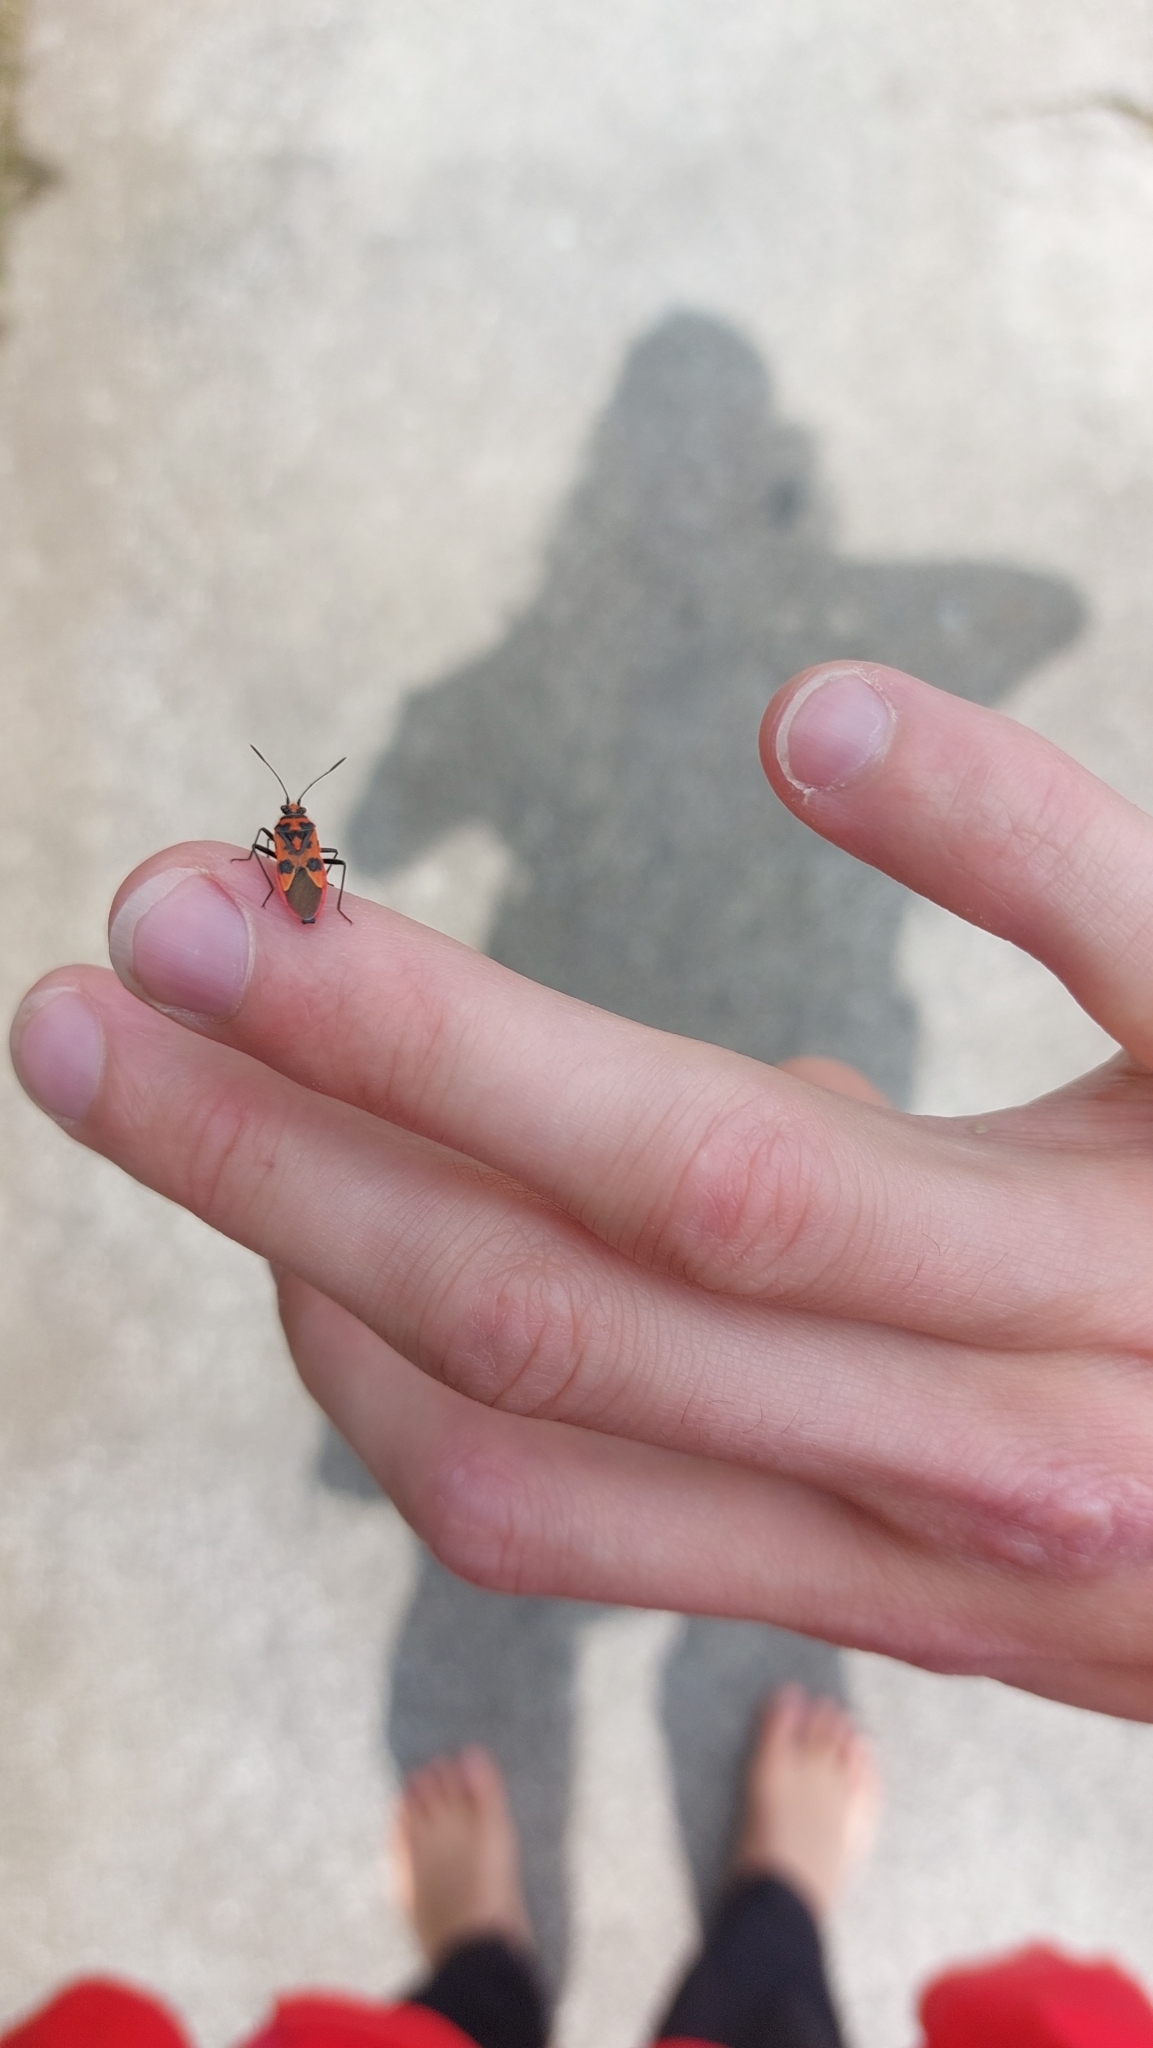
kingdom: Animalia
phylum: Arthropoda
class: Insecta
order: Hemiptera
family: Rhopalidae
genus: Corizus
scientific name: Corizus hyoscyami
